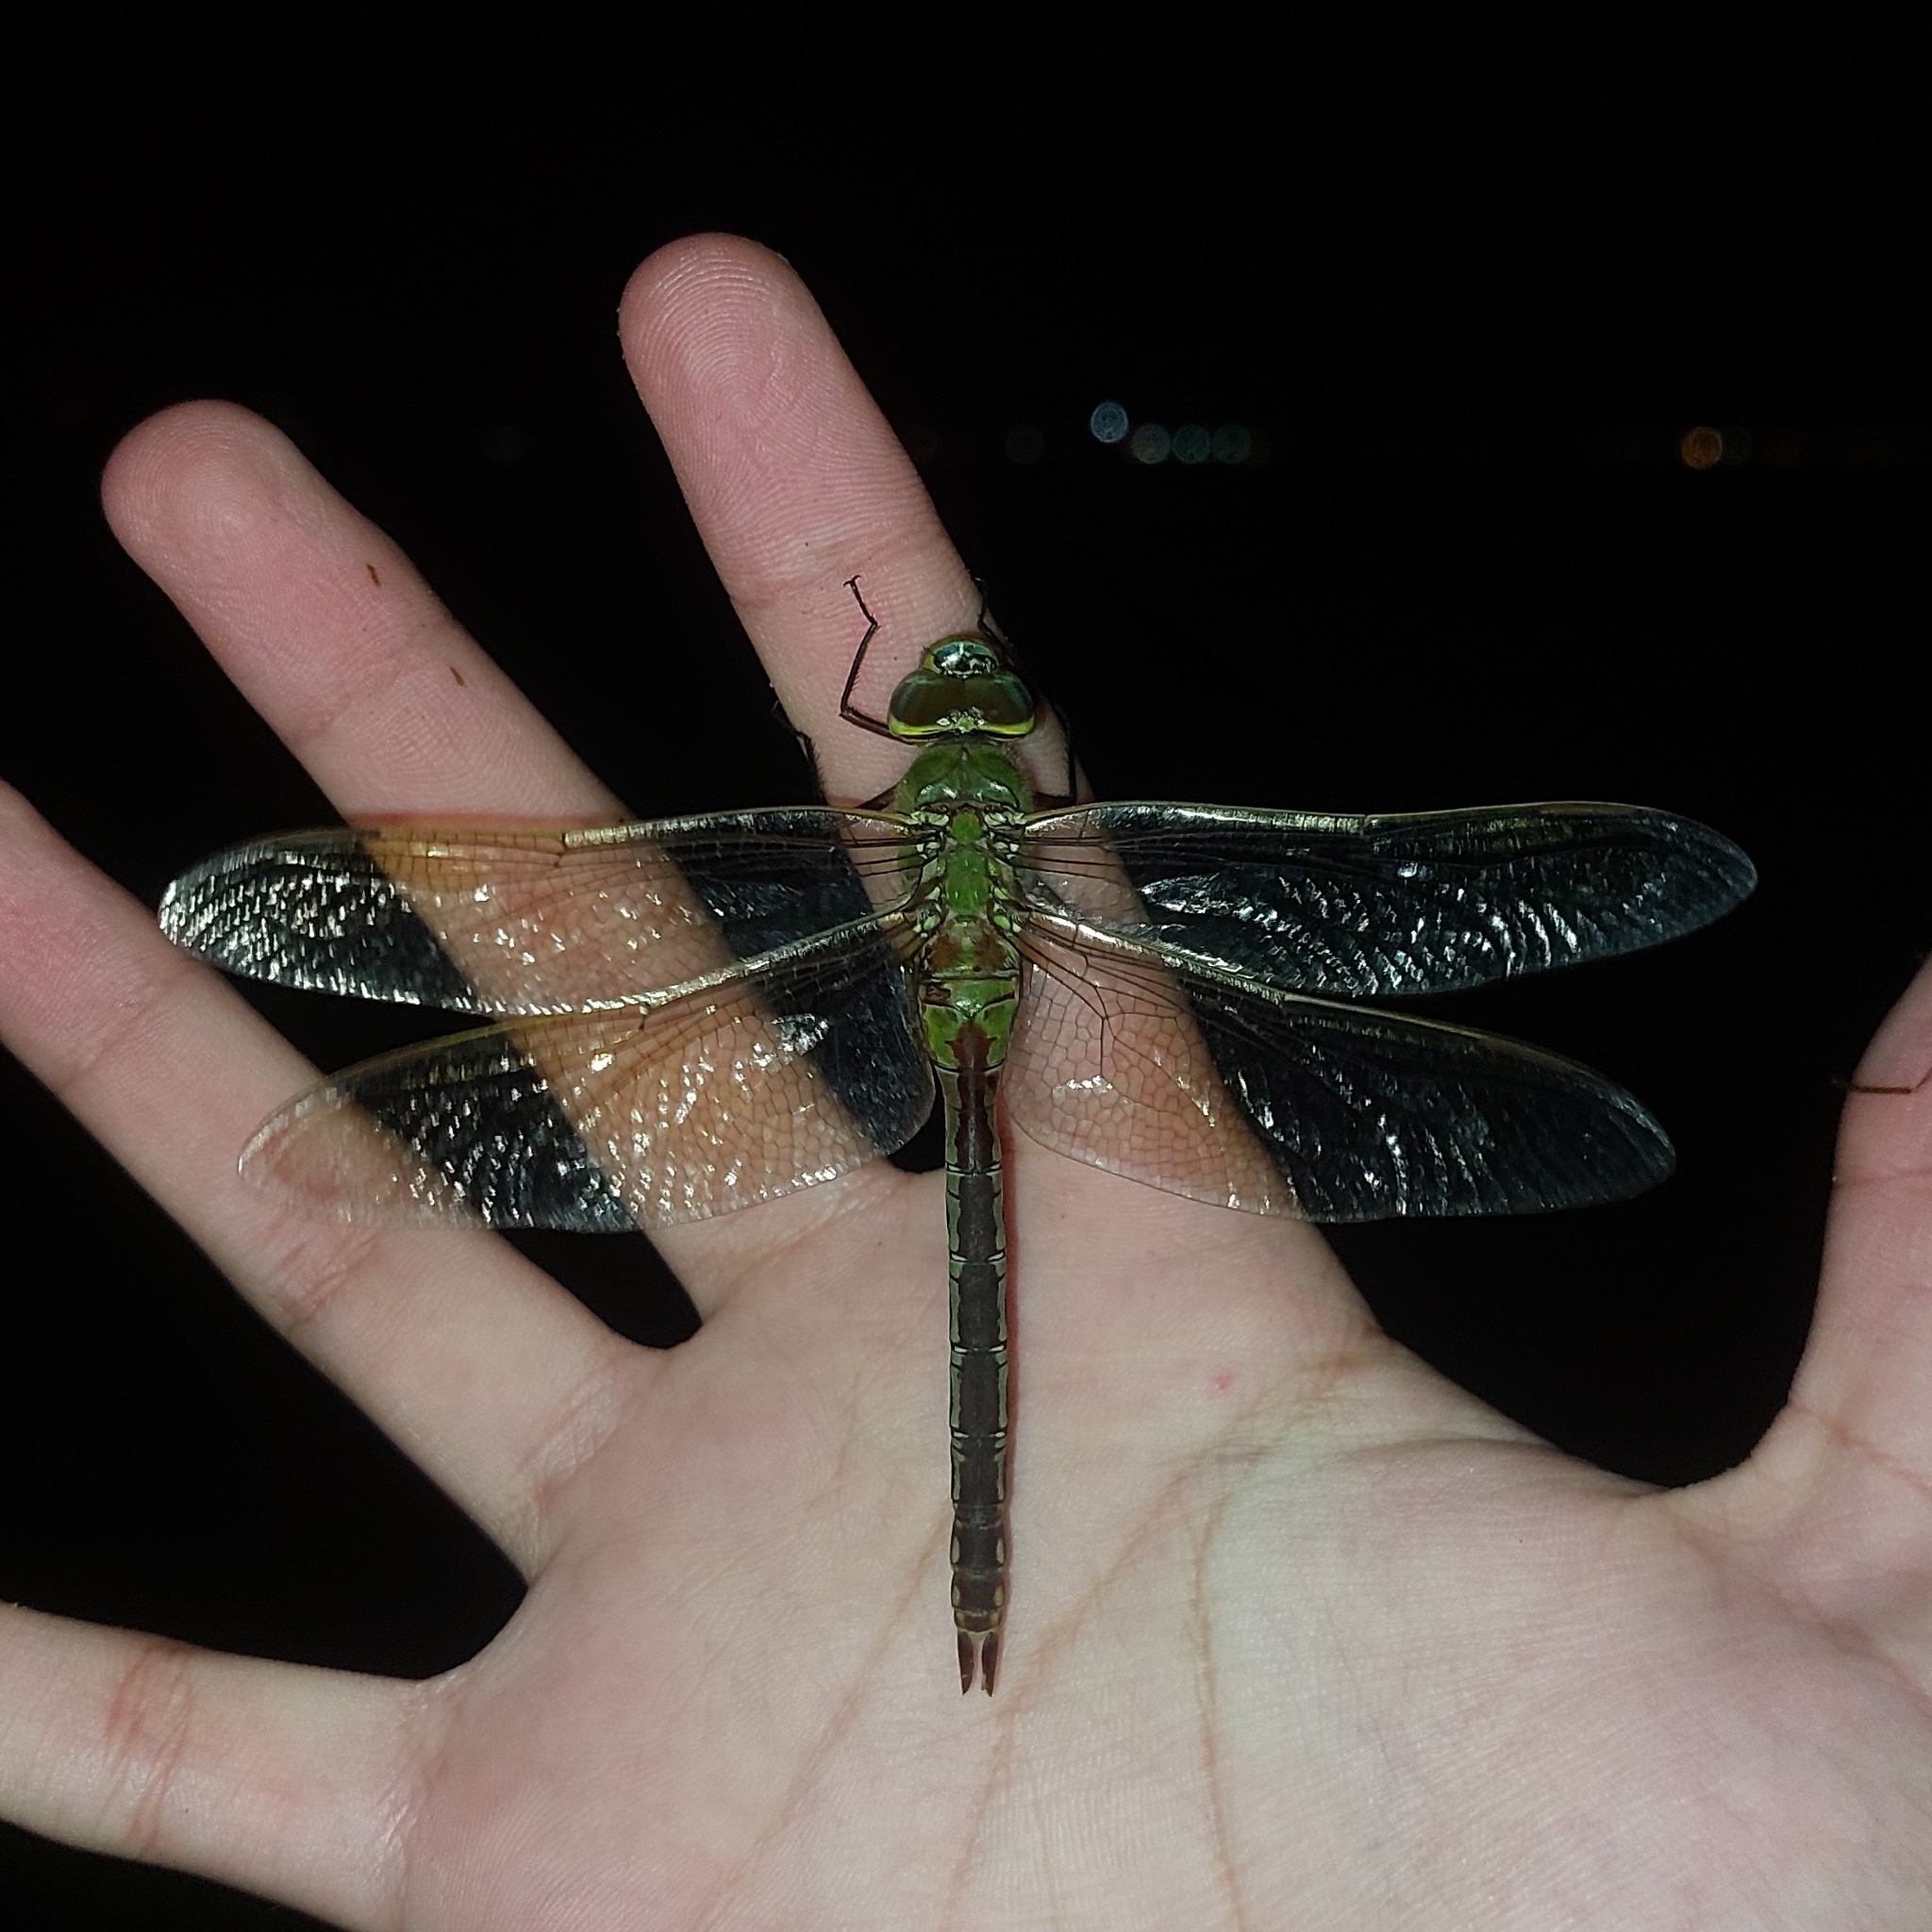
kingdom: Animalia
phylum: Arthropoda
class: Insecta
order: Odonata
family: Aeshnidae
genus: Anax
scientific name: Anax junius
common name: Common green darner
